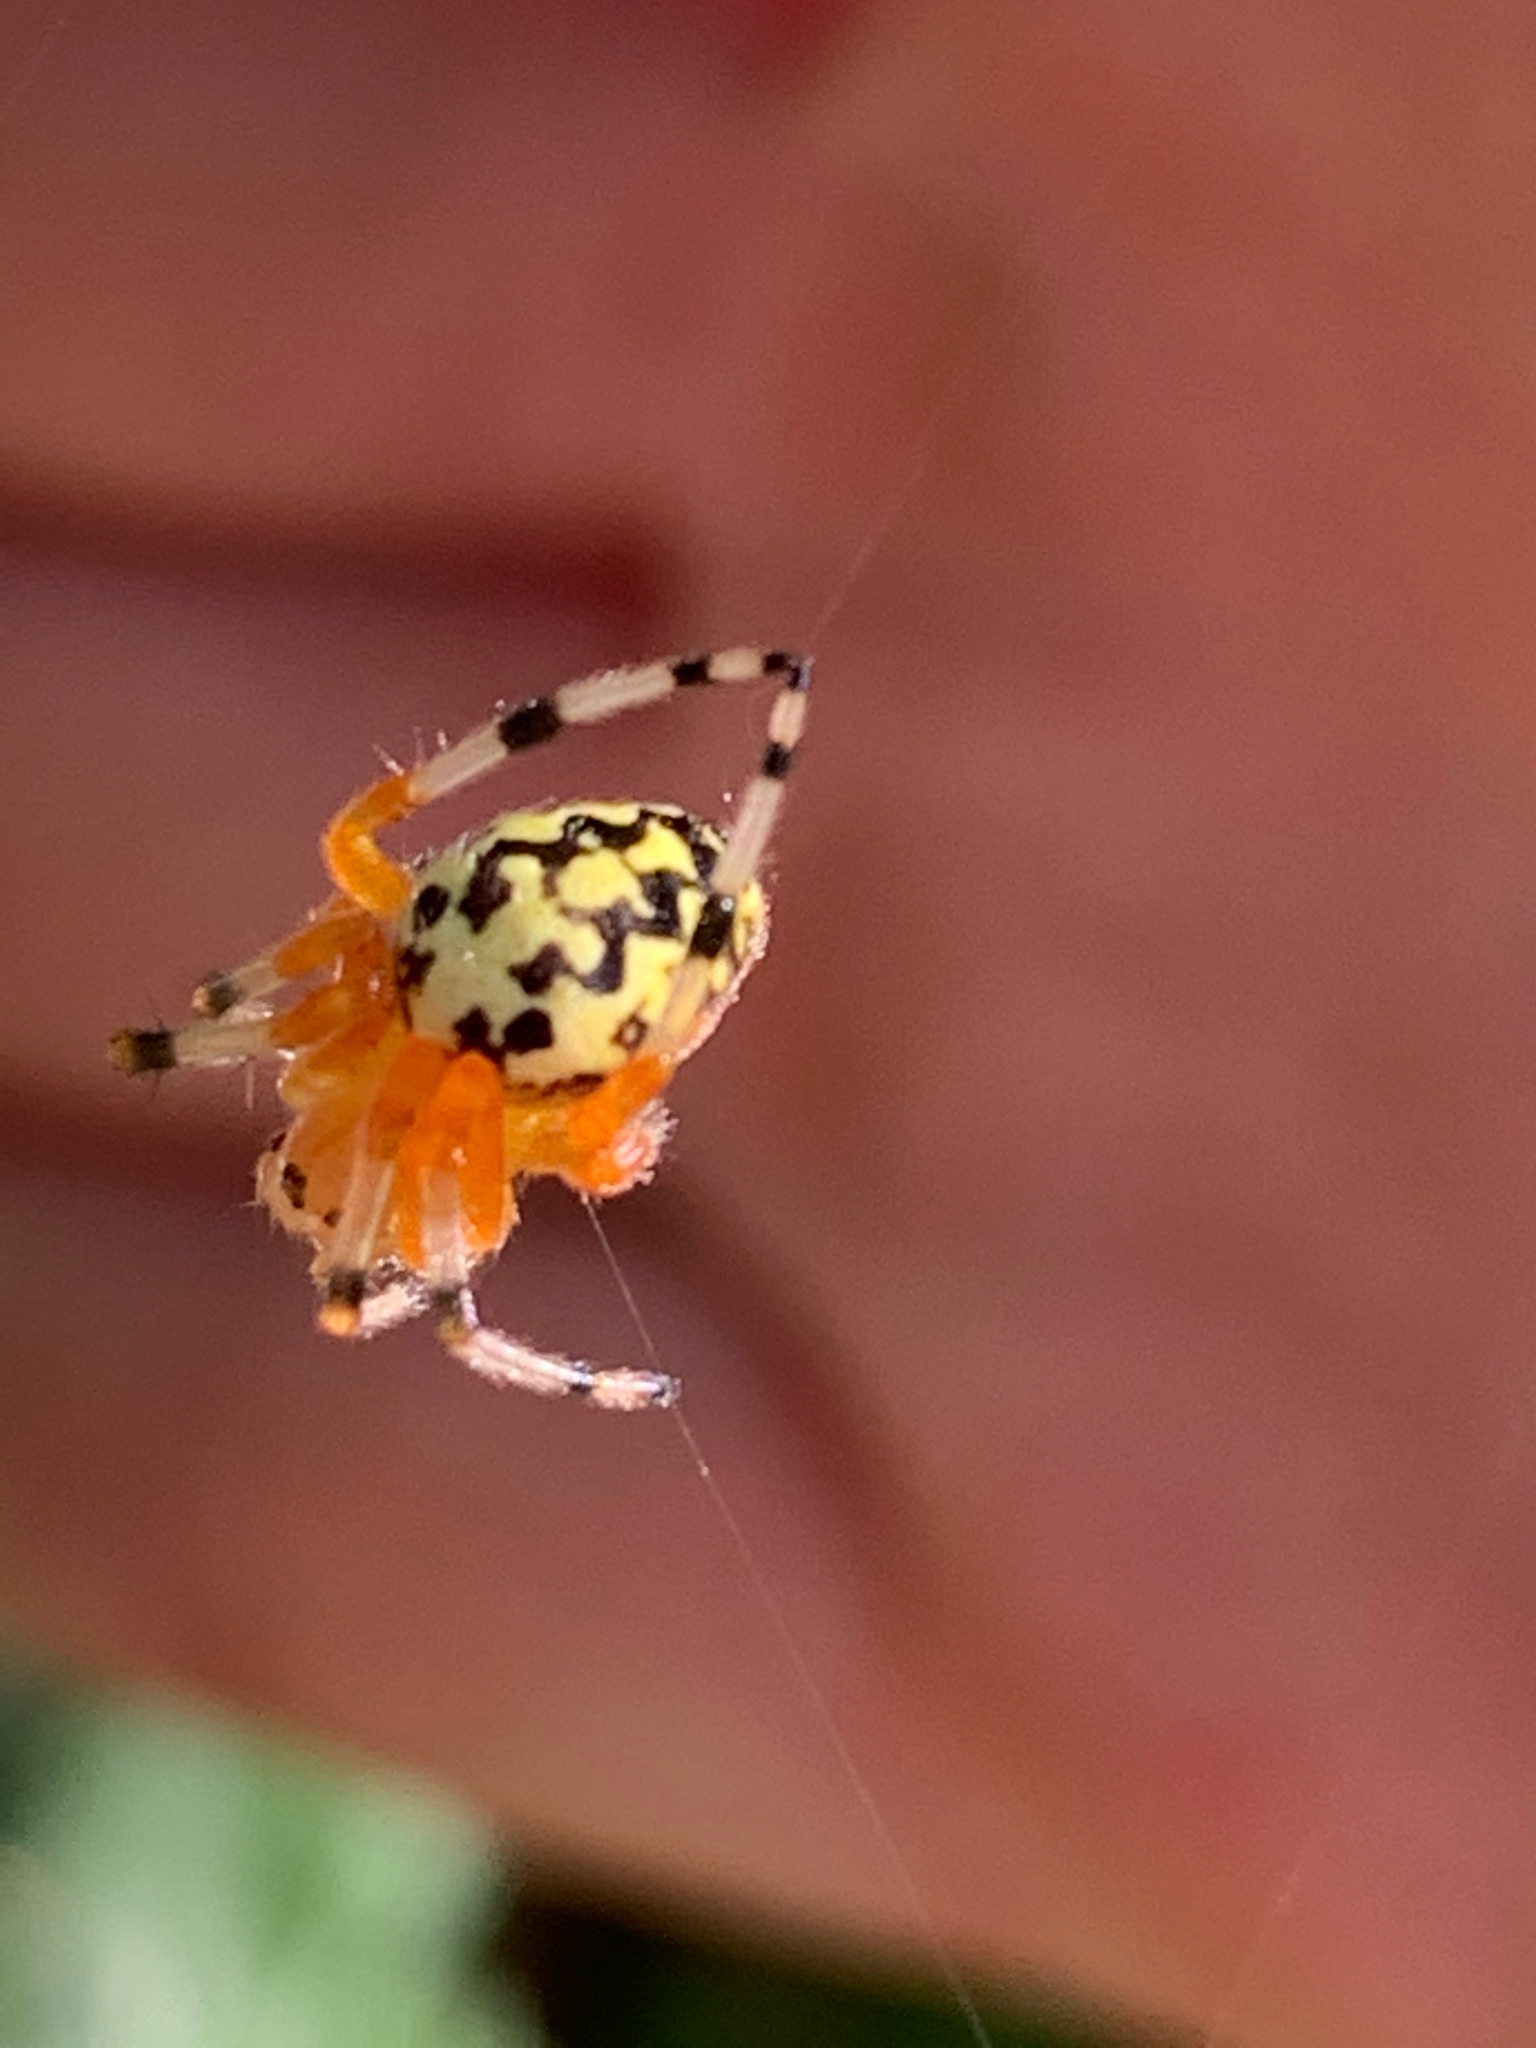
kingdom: Animalia
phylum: Arthropoda
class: Arachnida
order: Araneae
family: Araneidae
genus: Araneus
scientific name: Araneus marmoreus
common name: Marbled orbweaver
